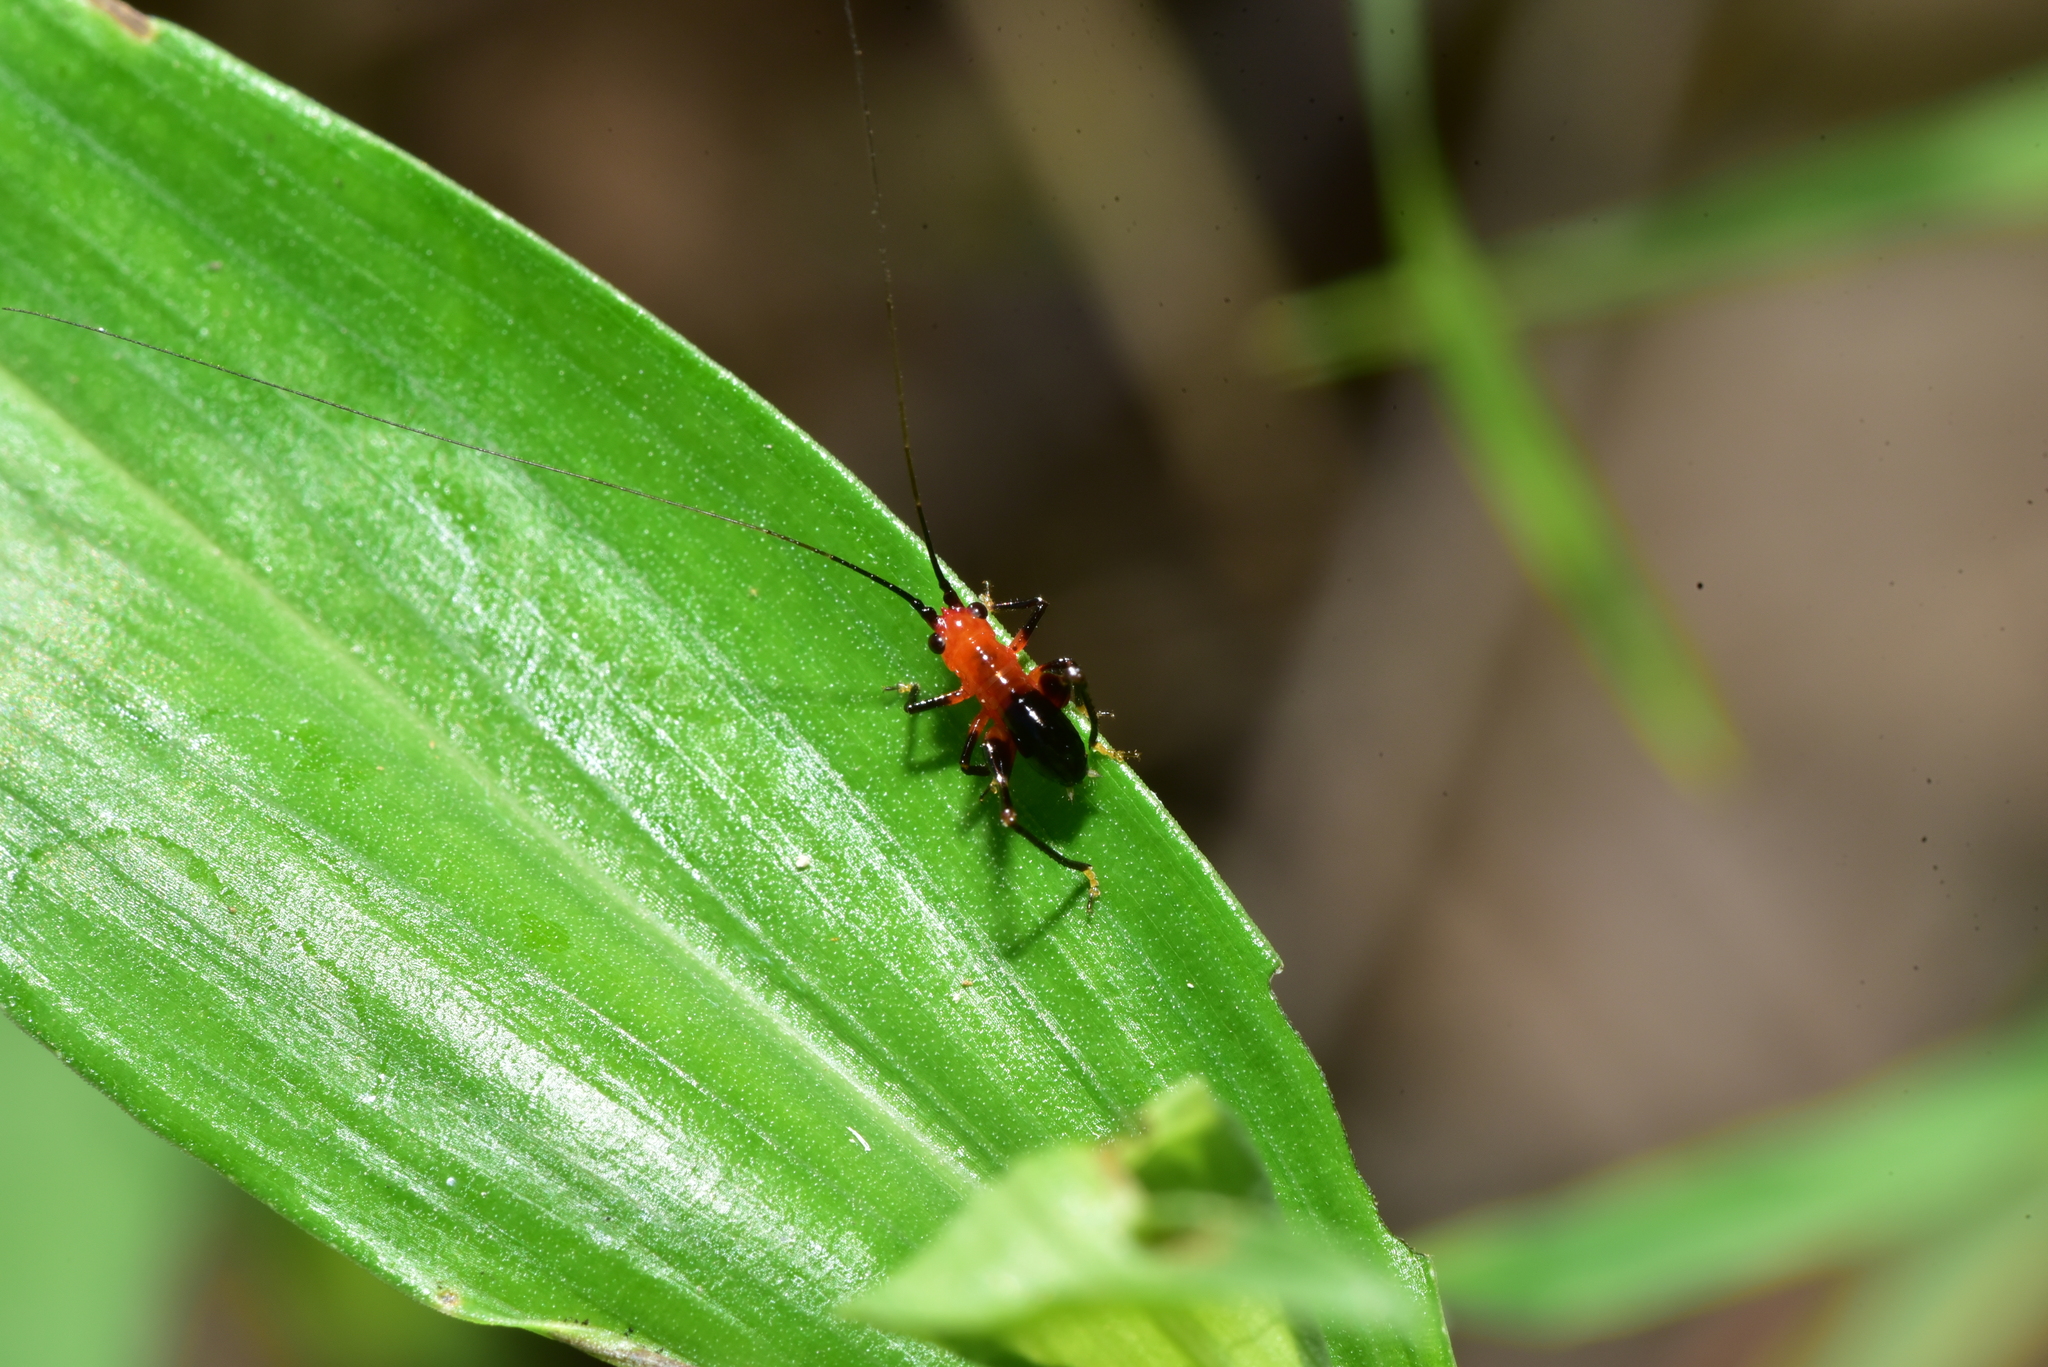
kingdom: Animalia
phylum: Arthropoda
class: Insecta
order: Orthoptera
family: Tettigoniidae
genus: Conocephalus
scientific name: Conocephalus melaenus
